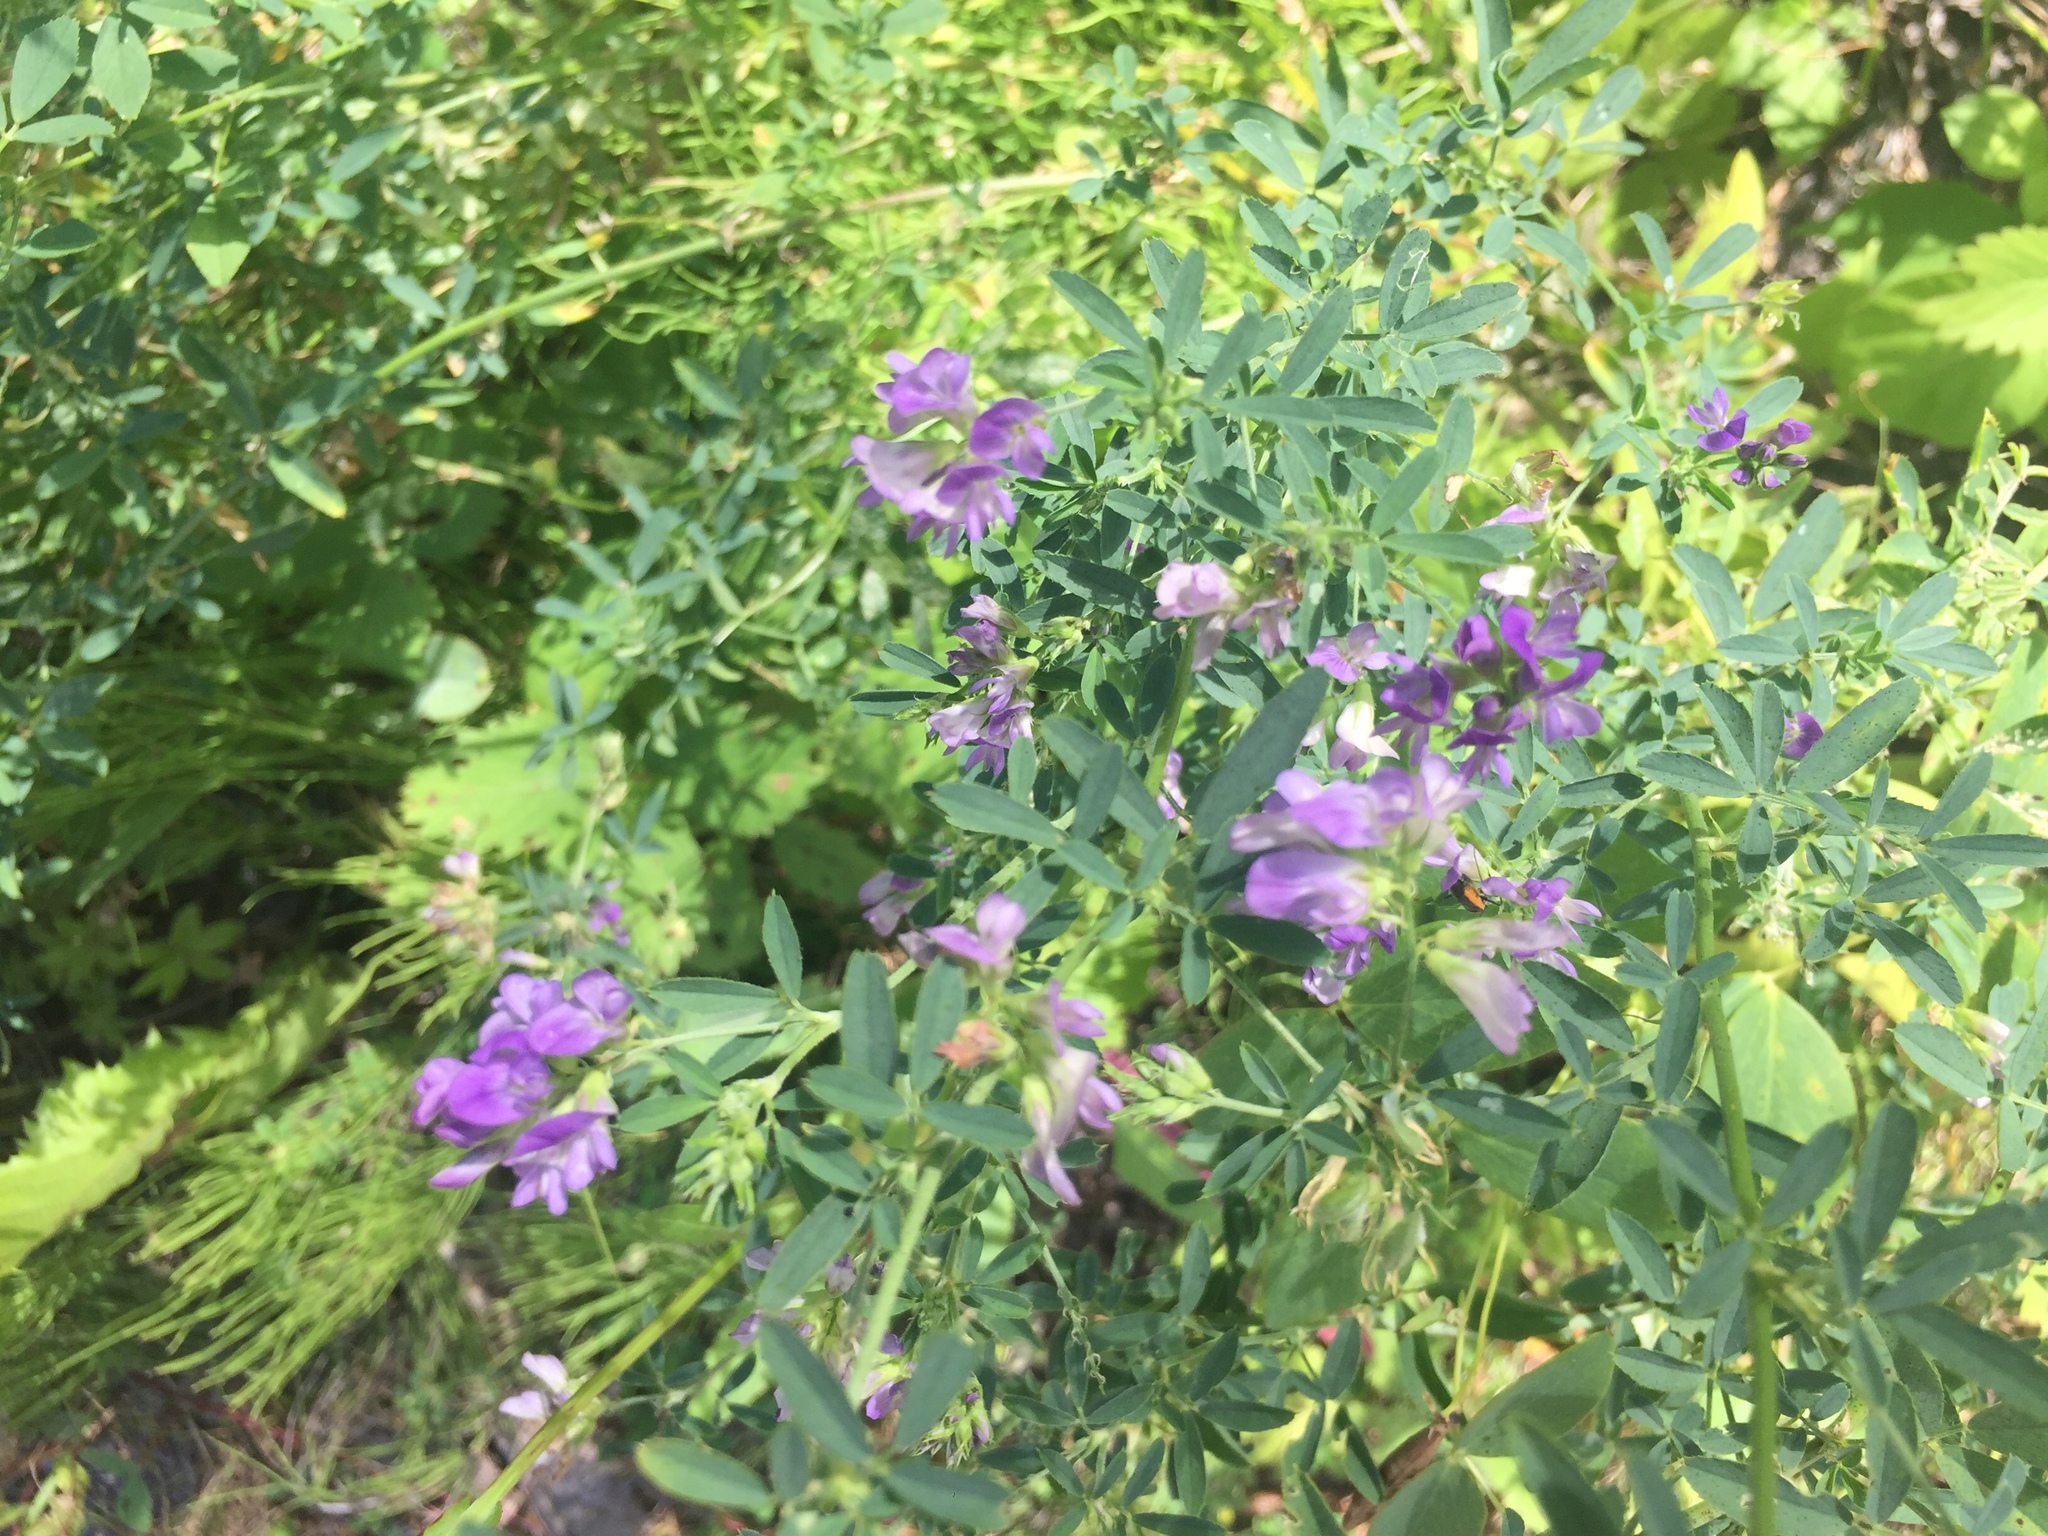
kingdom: Plantae
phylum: Tracheophyta
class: Magnoliopsida
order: Fabales
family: Fabaceae
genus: Medicago
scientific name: Medicago sativa
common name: Alfalfa
